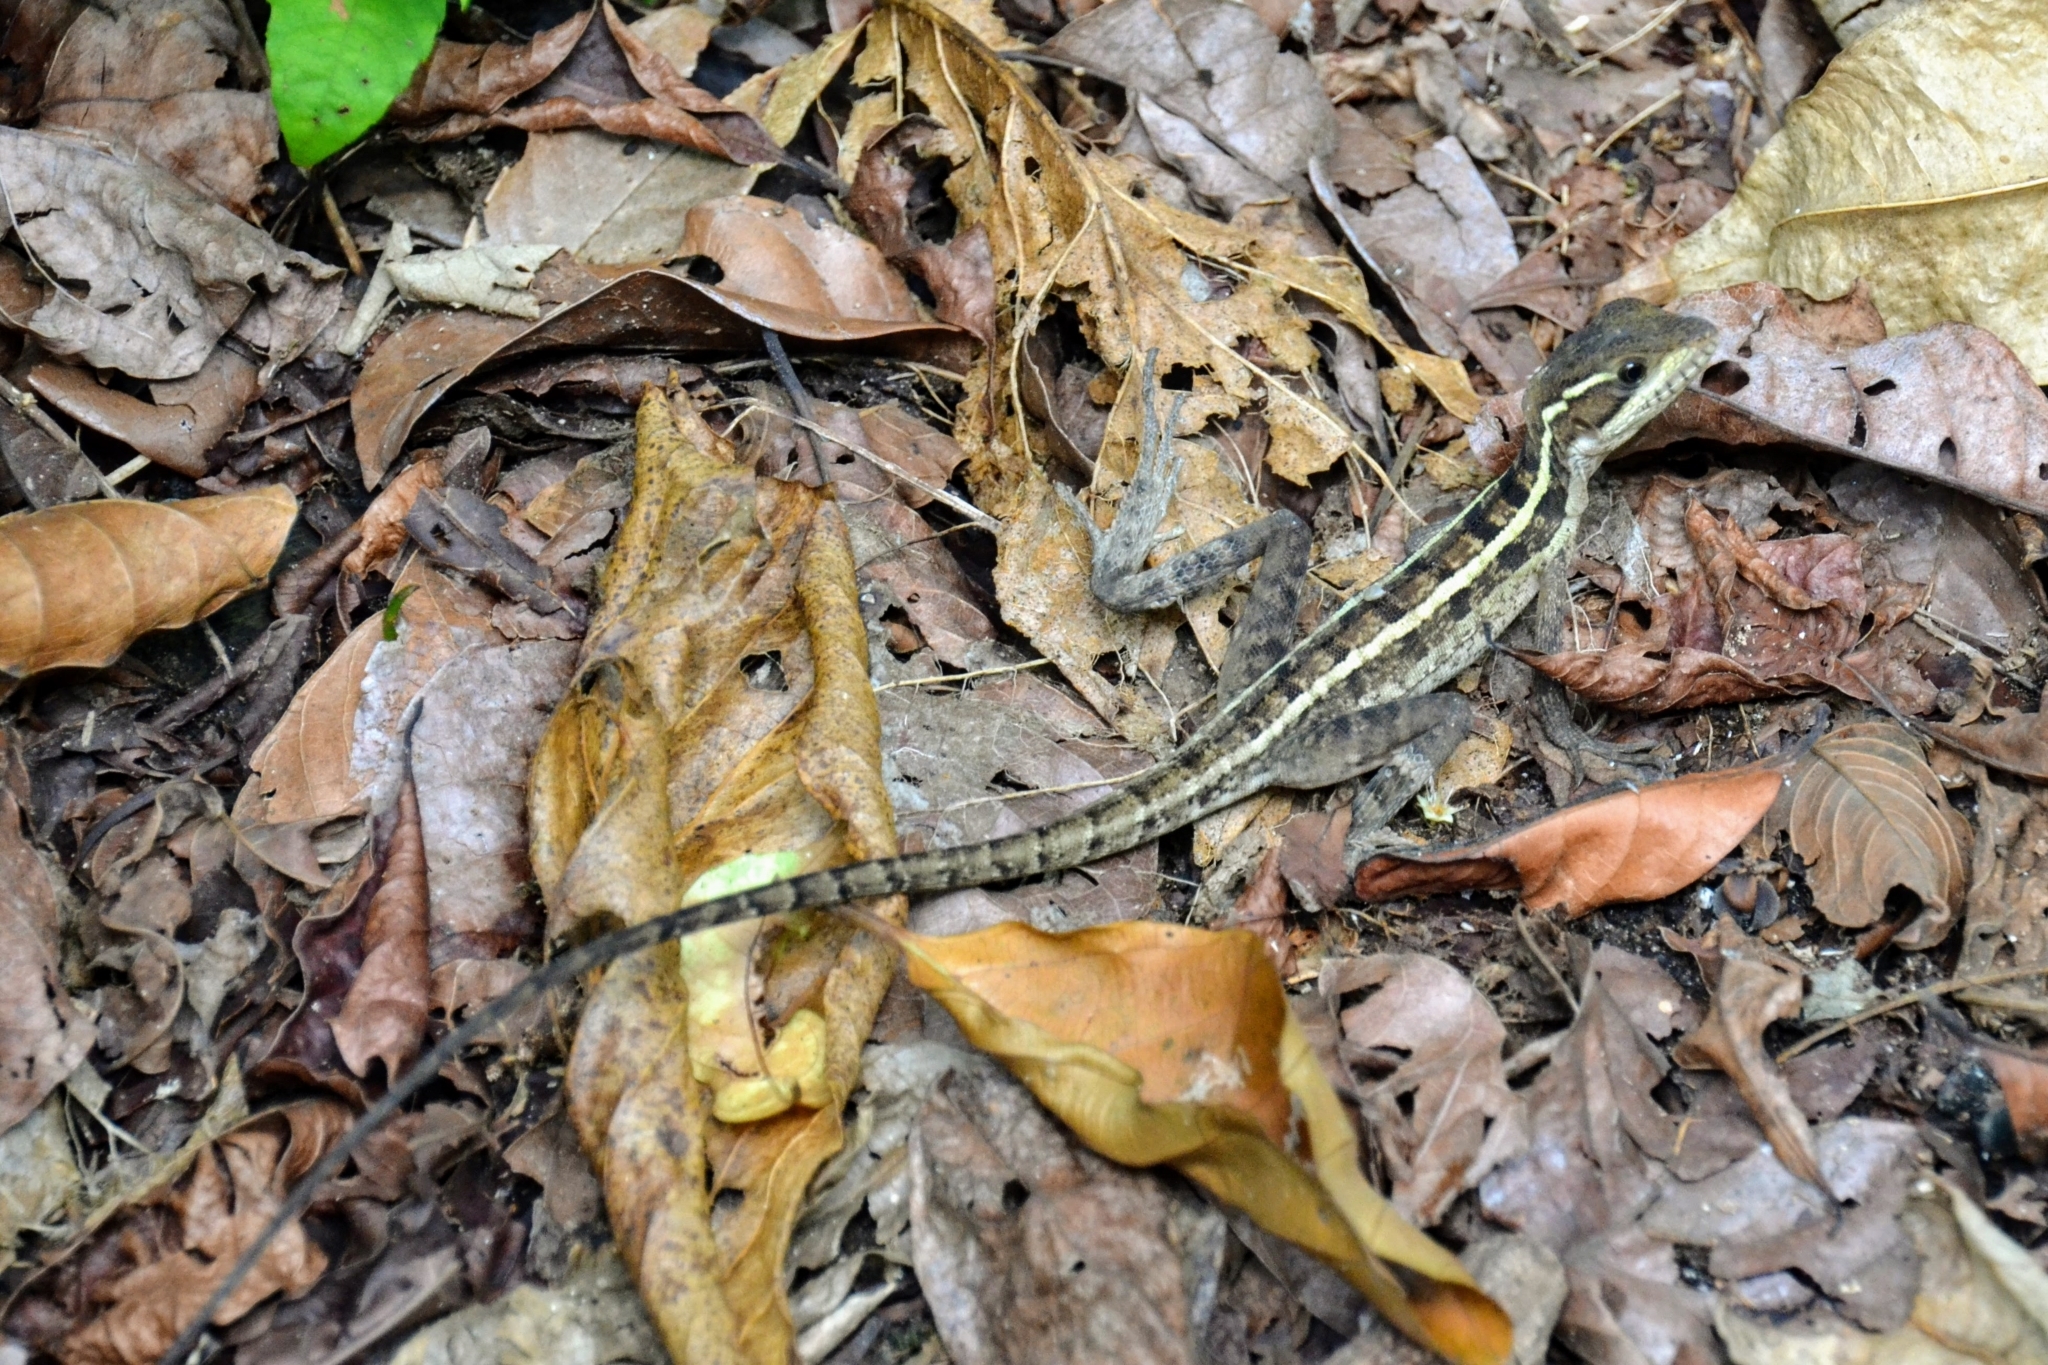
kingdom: Animalia
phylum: Chordata
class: Squamata
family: Corytophanidae
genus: Basiliscus
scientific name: Basiliscus vittatus
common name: Brown basilisk
